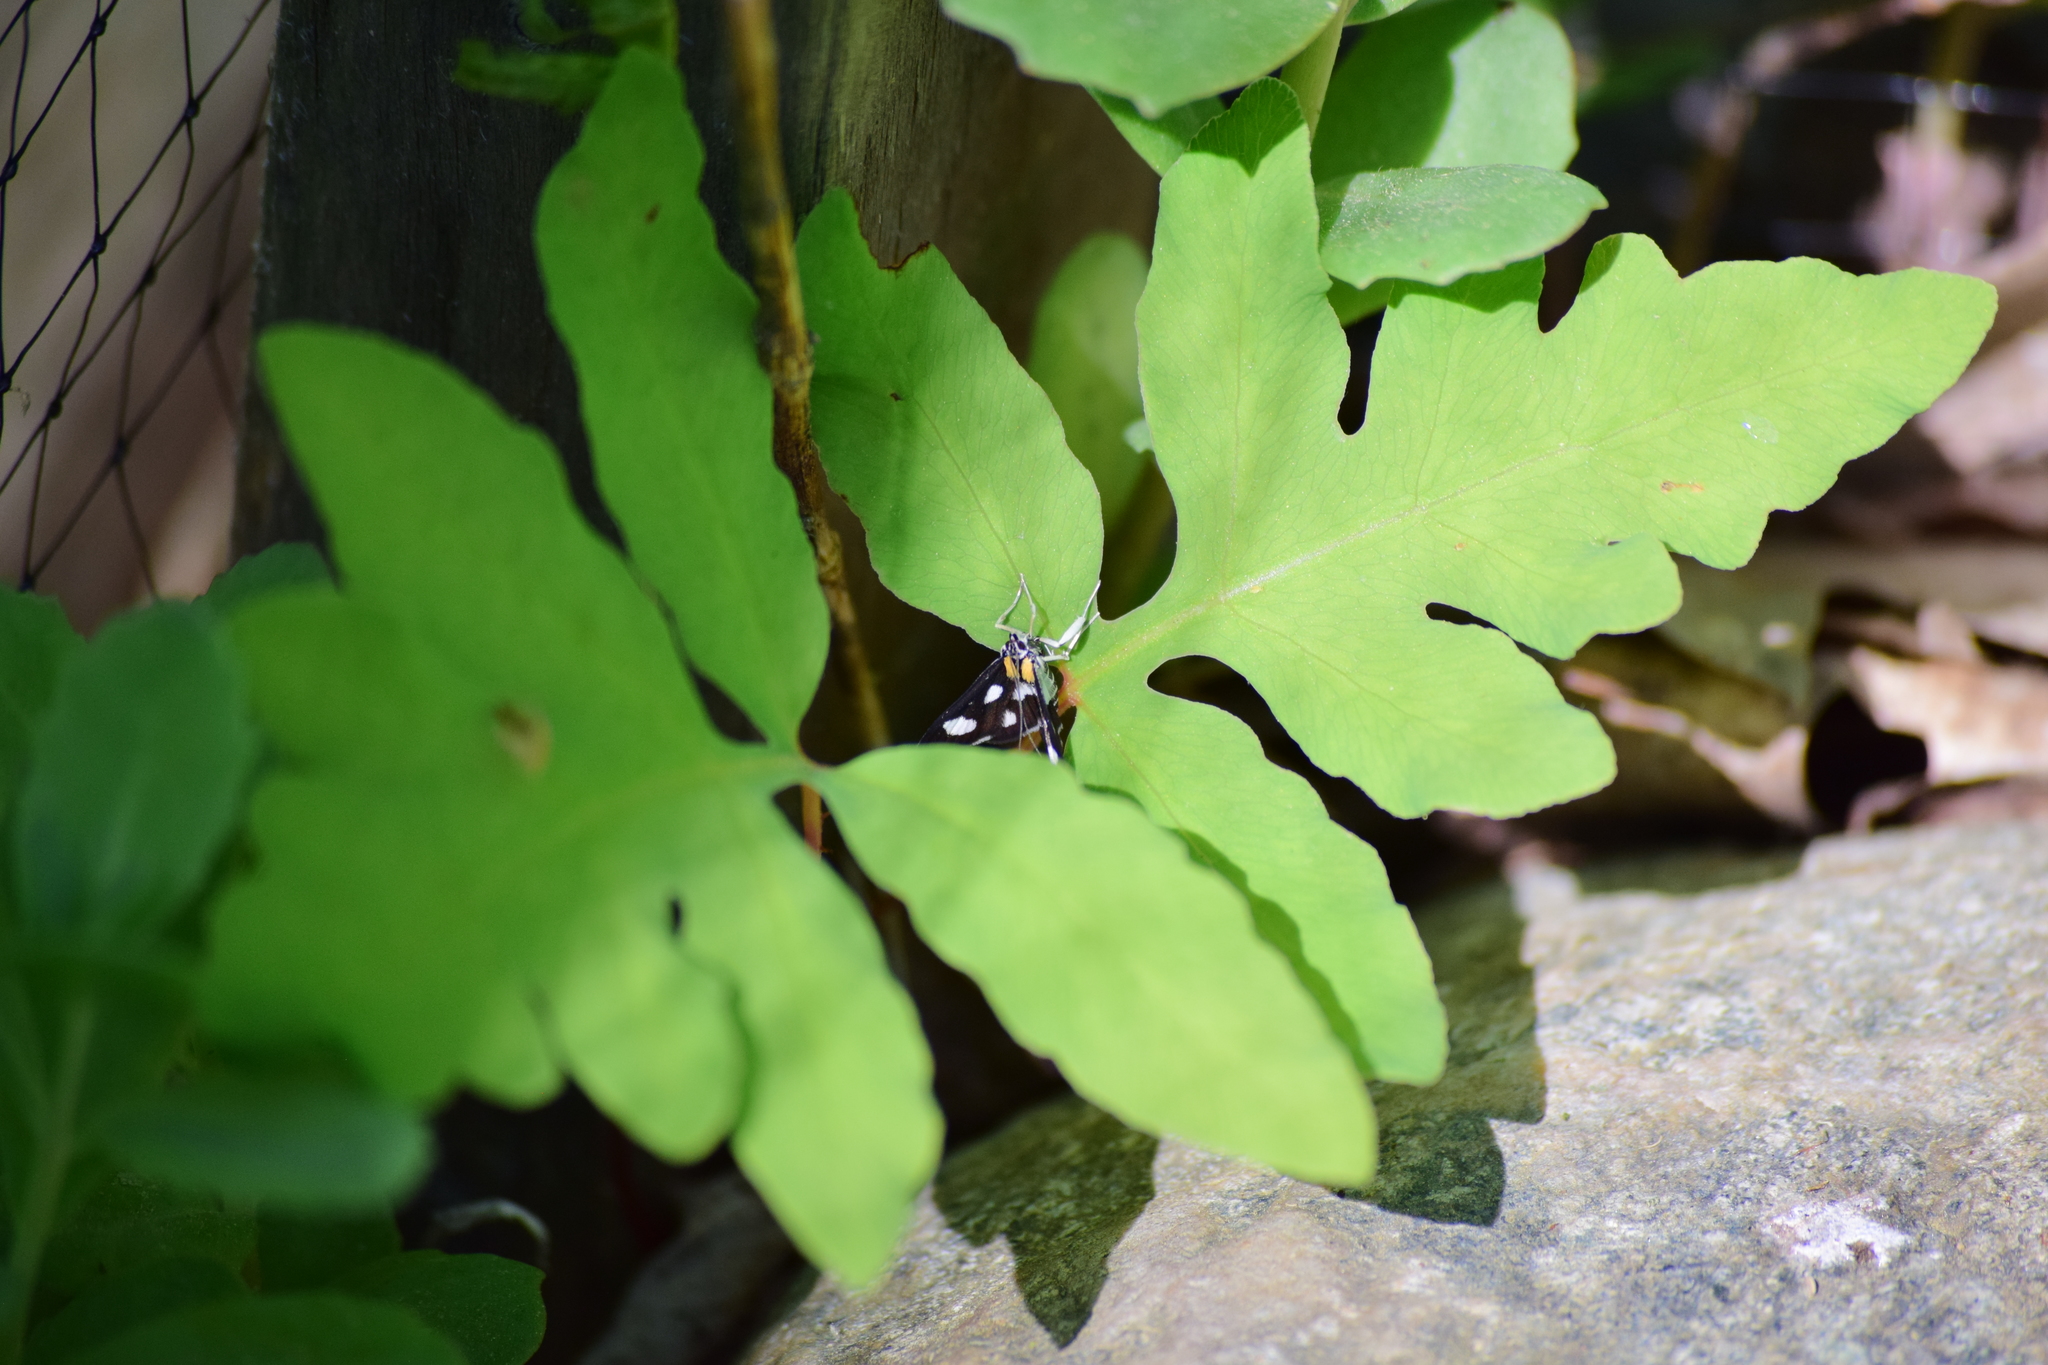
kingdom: Animalia
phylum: Arthropoda
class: Insecta
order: Lepidoptera
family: Crambidae
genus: Anania
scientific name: Anania funebris
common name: White-spotted sable moth
